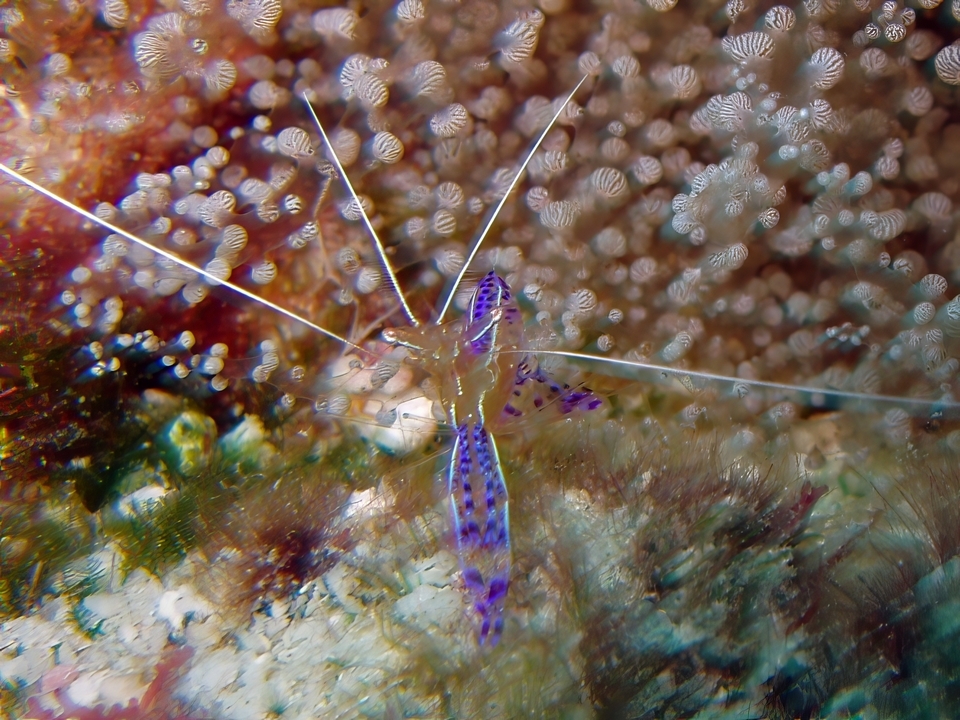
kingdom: Animalia
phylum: Arthropoda
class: Malacostraca
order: Decapoda
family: Palaemonidae
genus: Ancylomenes
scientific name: Ancylomenes pedersoni
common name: Pederson's cleaning shrimp
